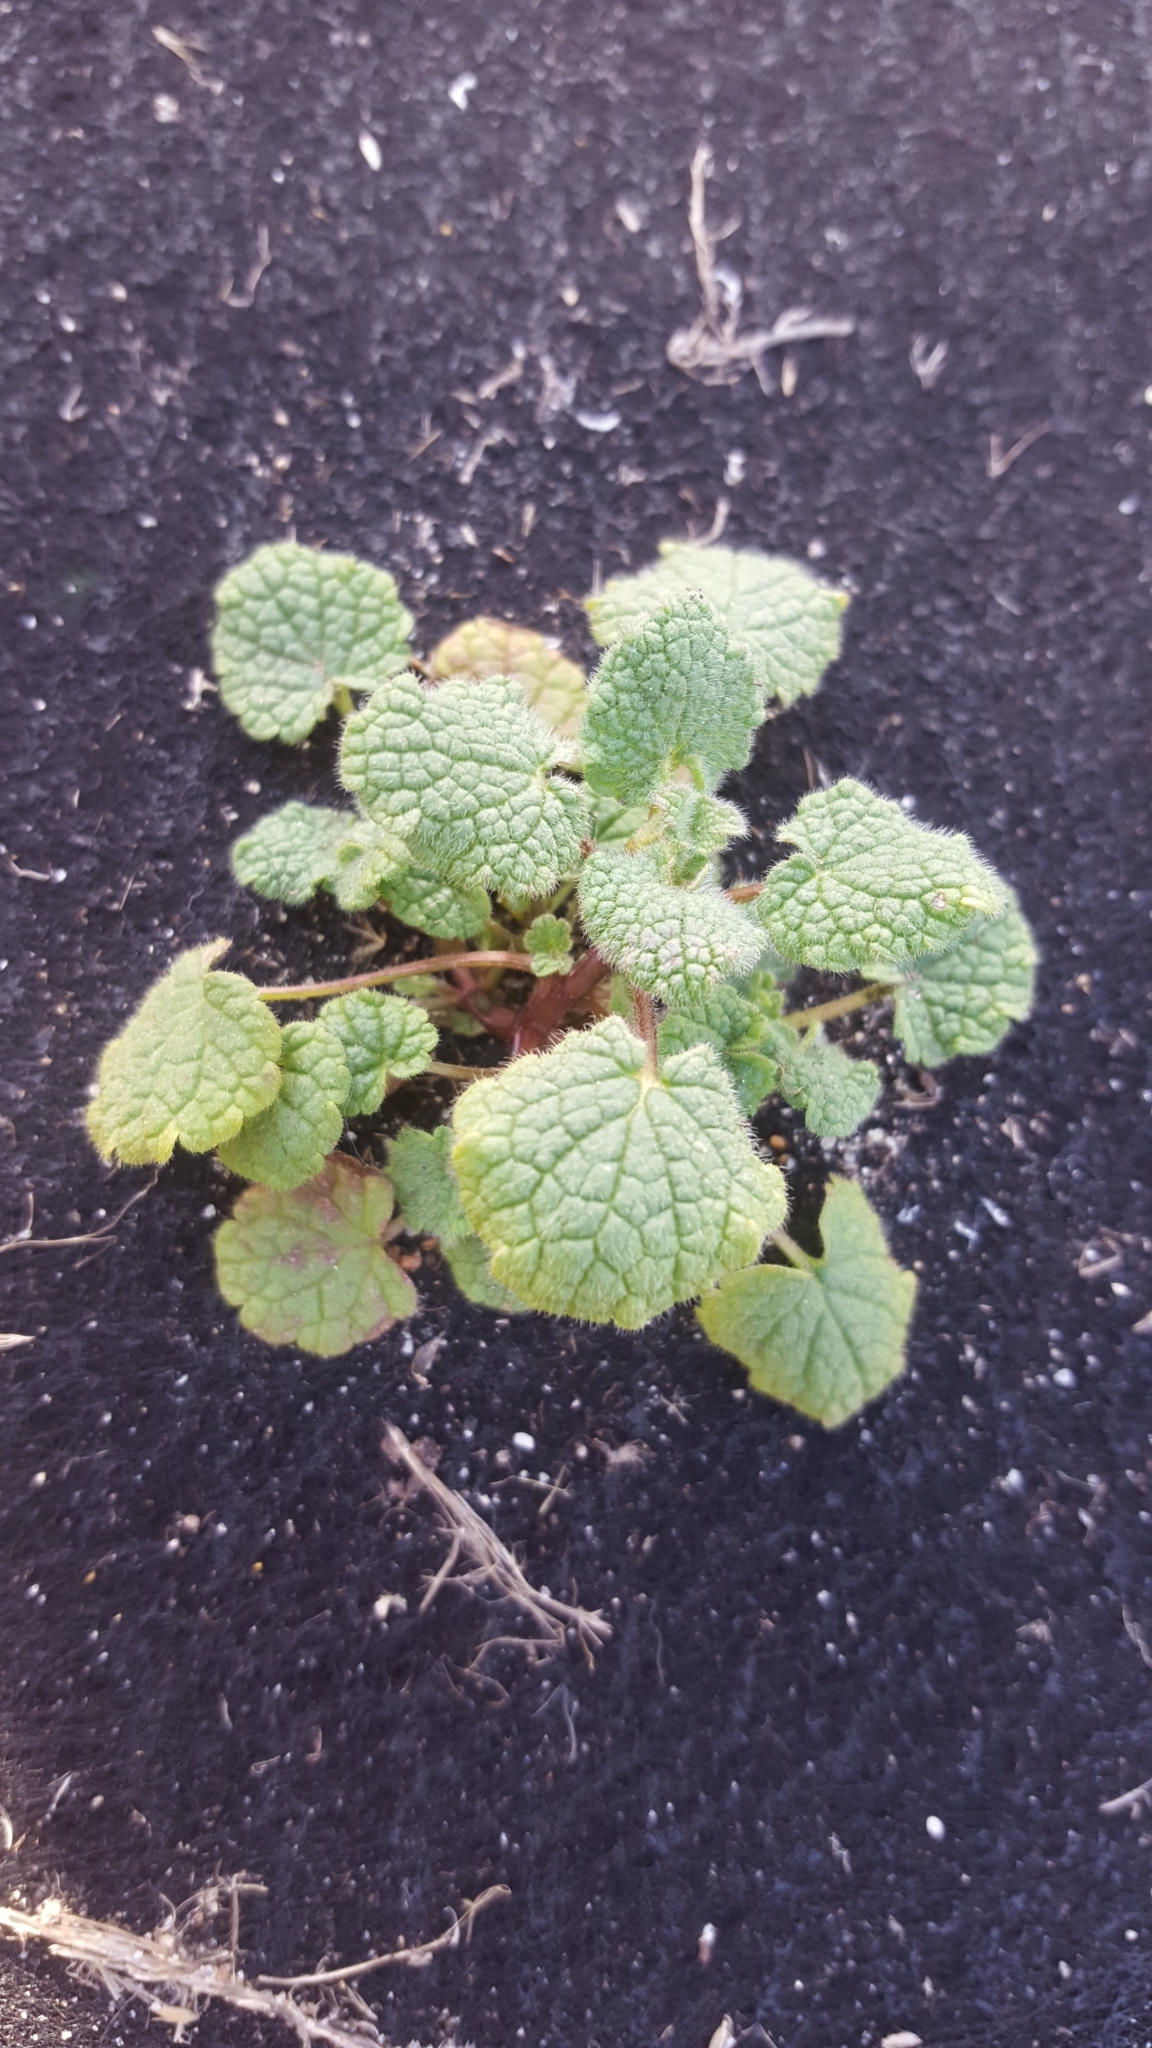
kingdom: Plantae
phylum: Tracheophyta
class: Magnoliopsida
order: Lamiales
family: Lamiaceae
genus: Lamium
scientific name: Lamium purpureum
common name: Red dead-nettle
